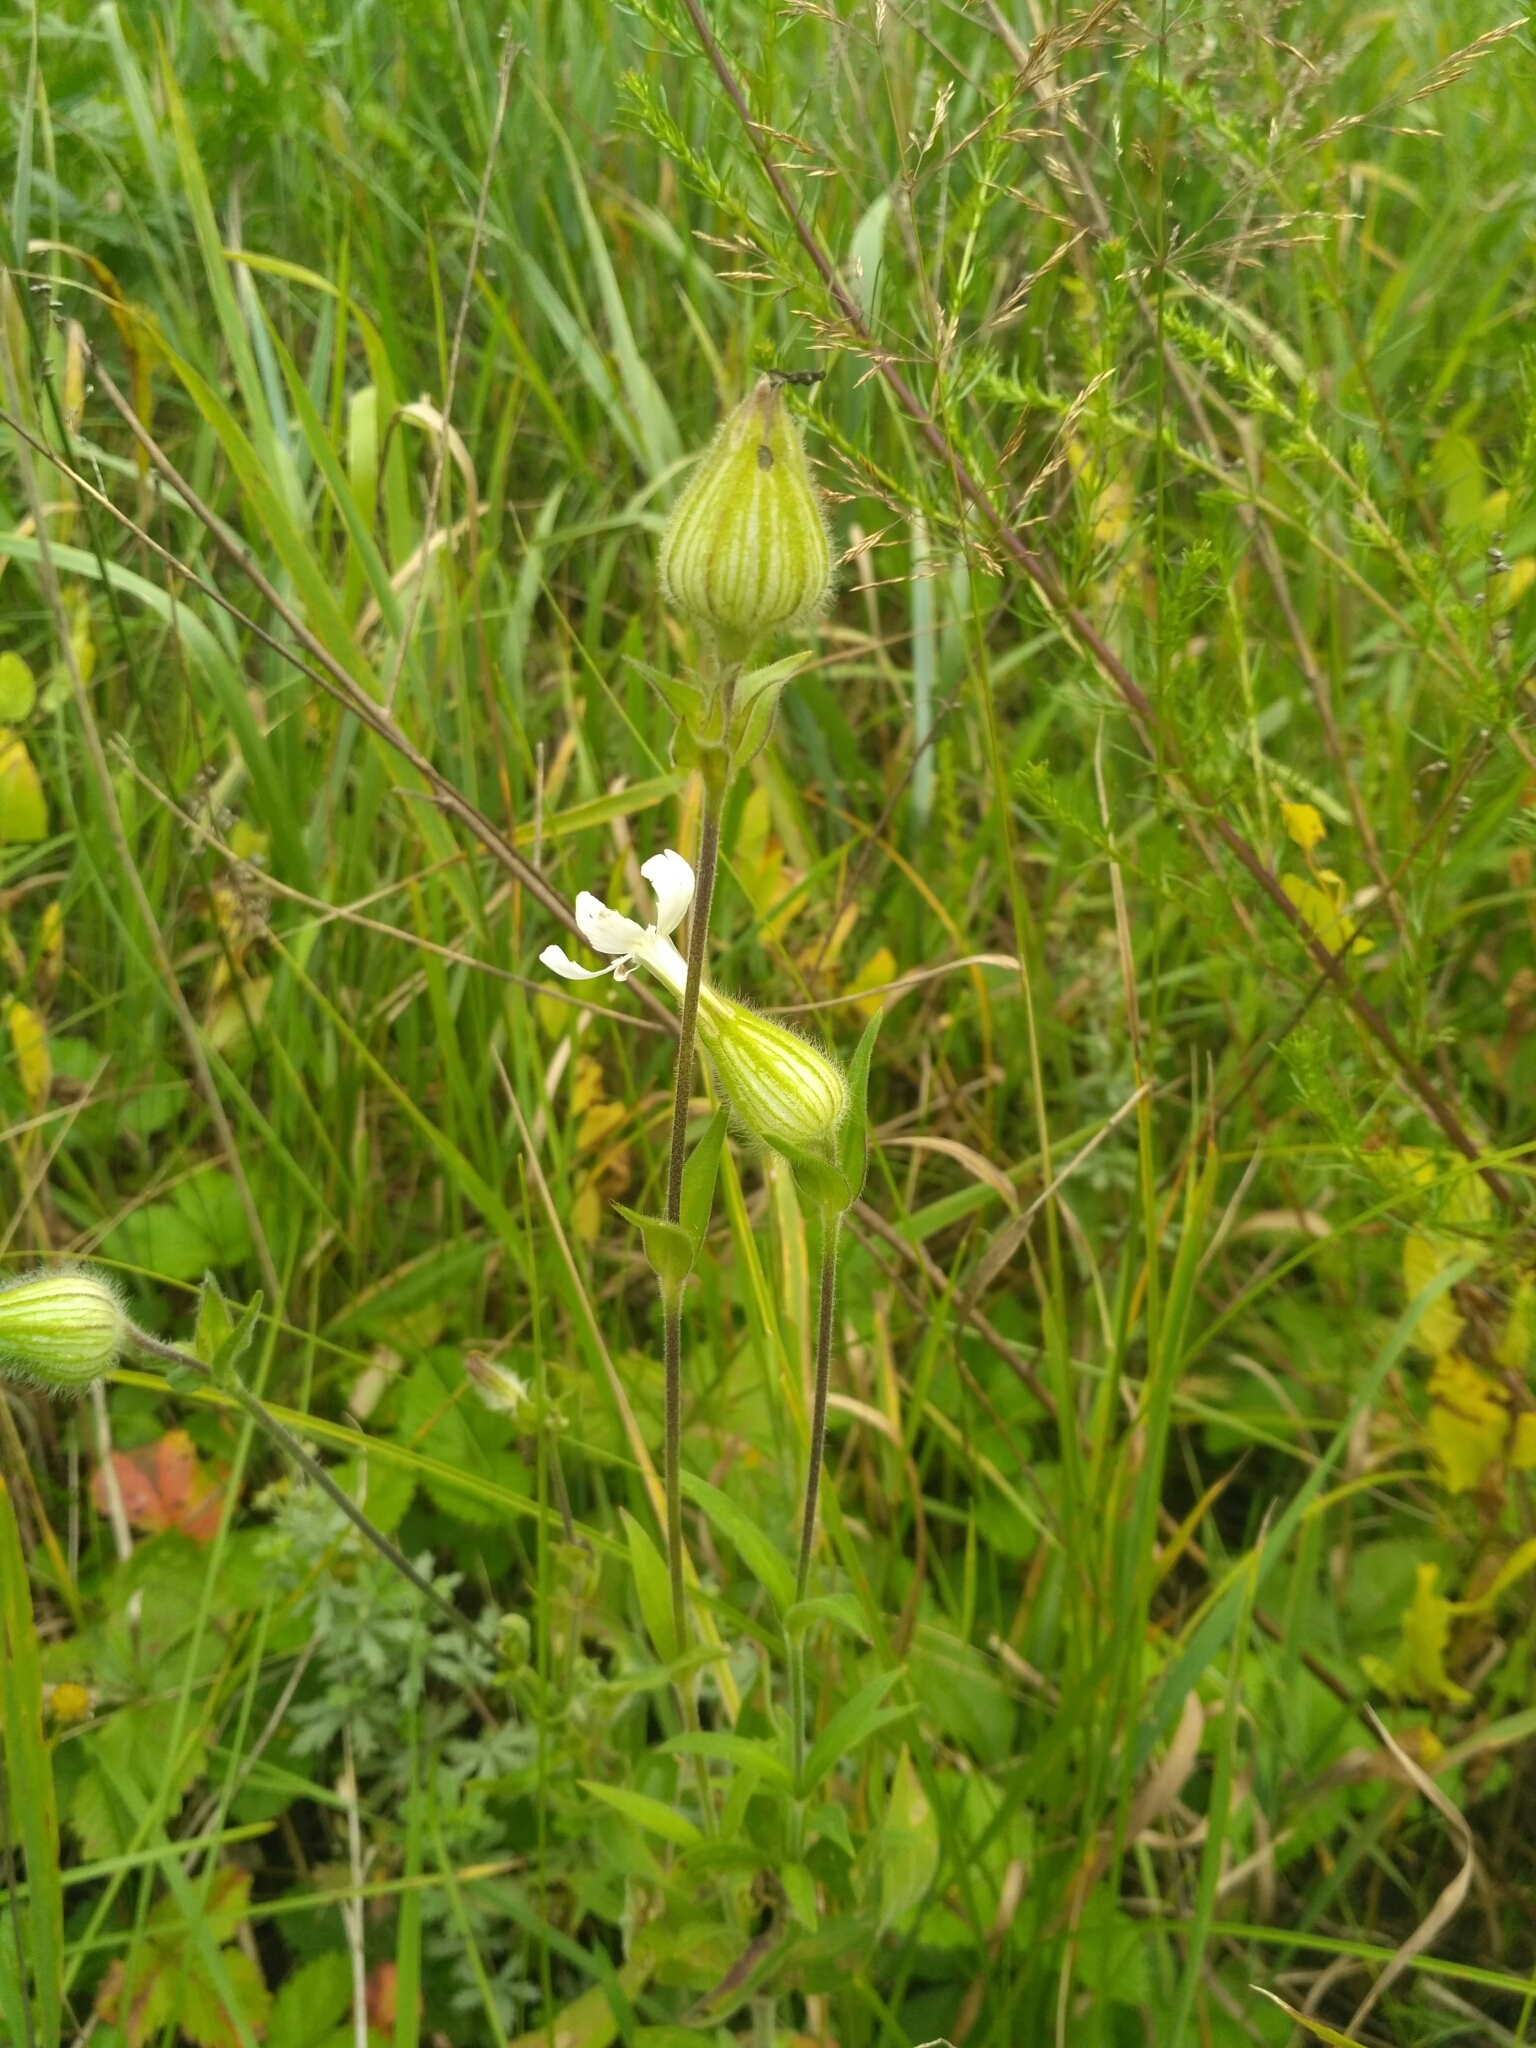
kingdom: Plantae
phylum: Tracheophyta
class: Magnoliopsida
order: Caryophyllales
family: Caryophyllaceae
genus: Silene
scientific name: Silene latifolia
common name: White campion
